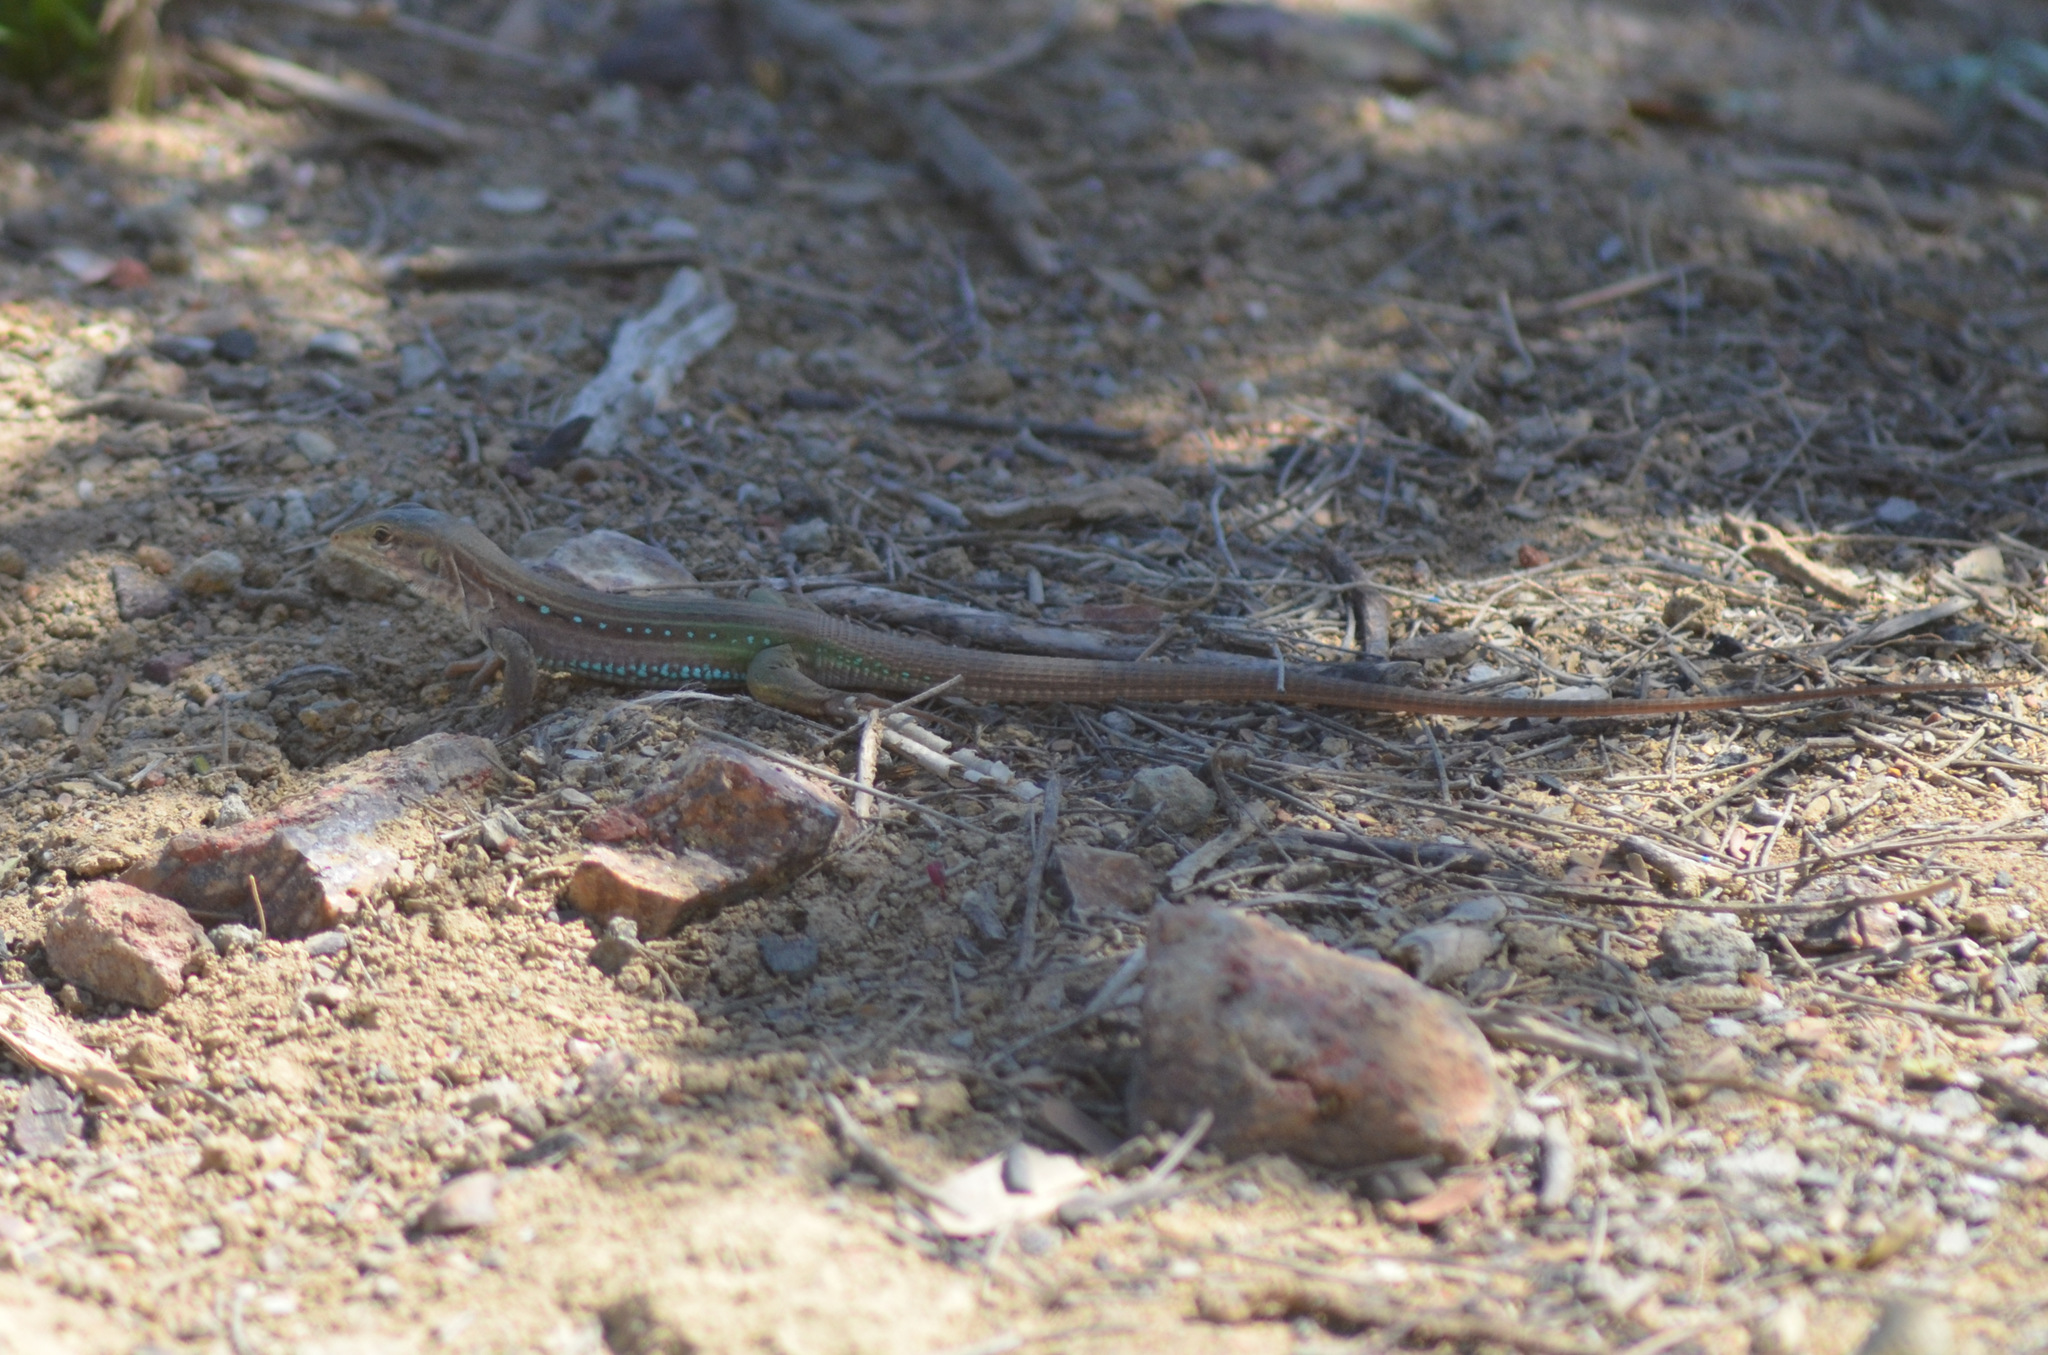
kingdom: Animalia
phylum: Chordata
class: Squamata
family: Teiidae
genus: Ameivula
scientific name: Ameivula ocellifera
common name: Spix's whiptail
